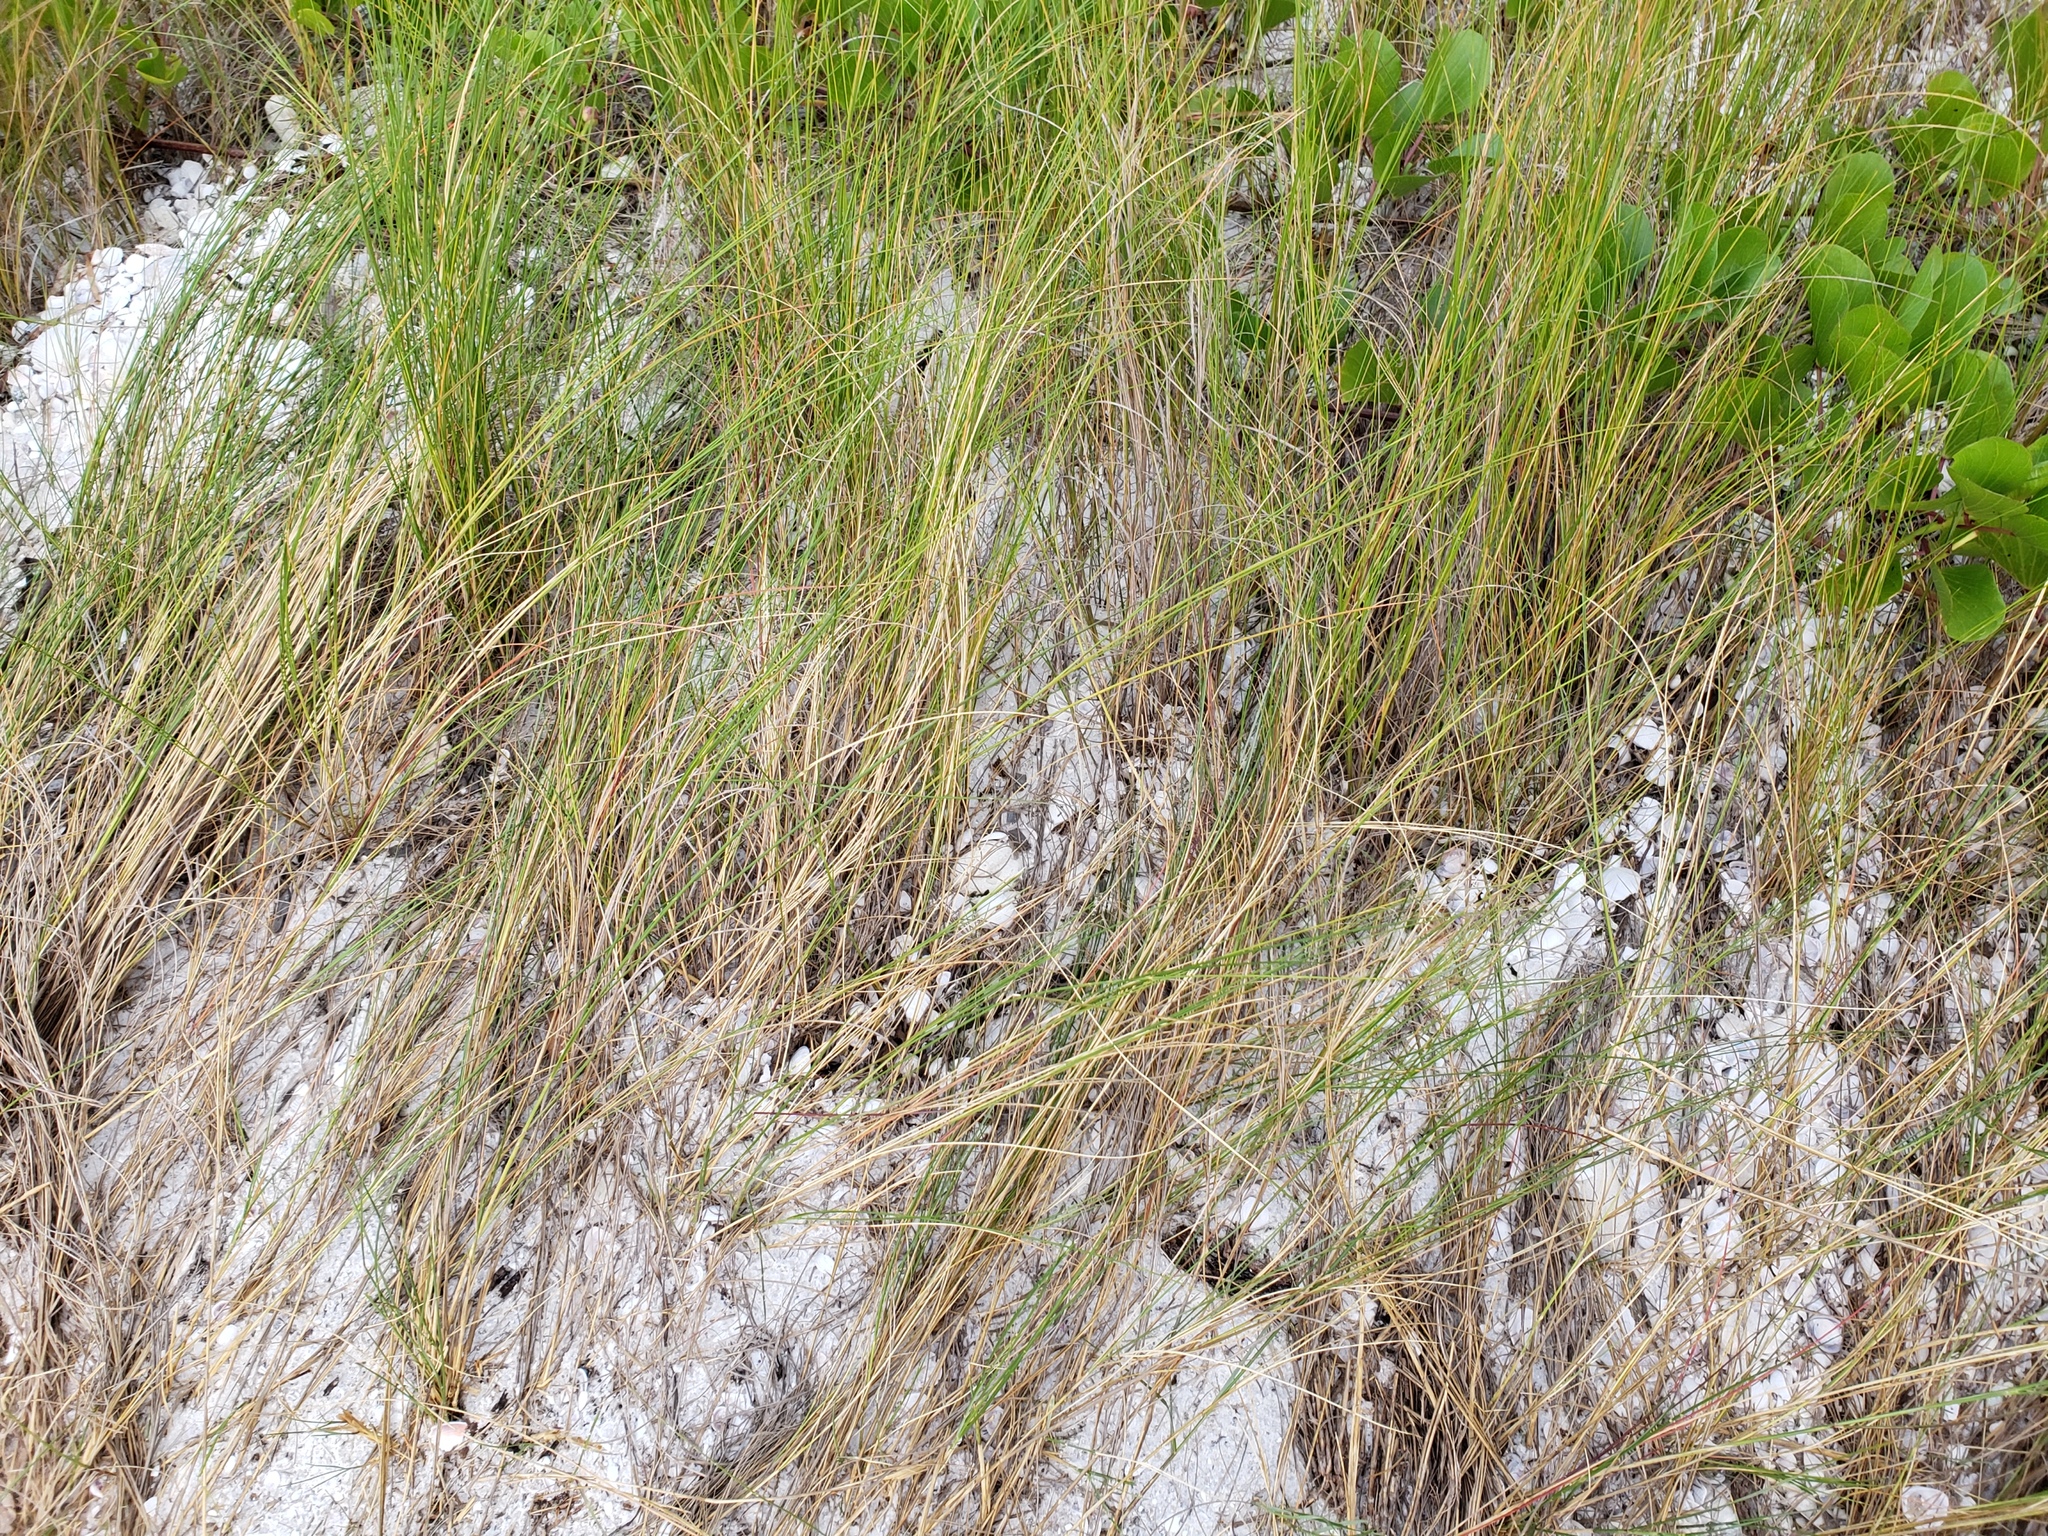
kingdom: Plantae
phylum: Tracheophyta
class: Liliopsida
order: Poales
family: Poaceae
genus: Sporobolus
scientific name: Sporobolus bakeri
